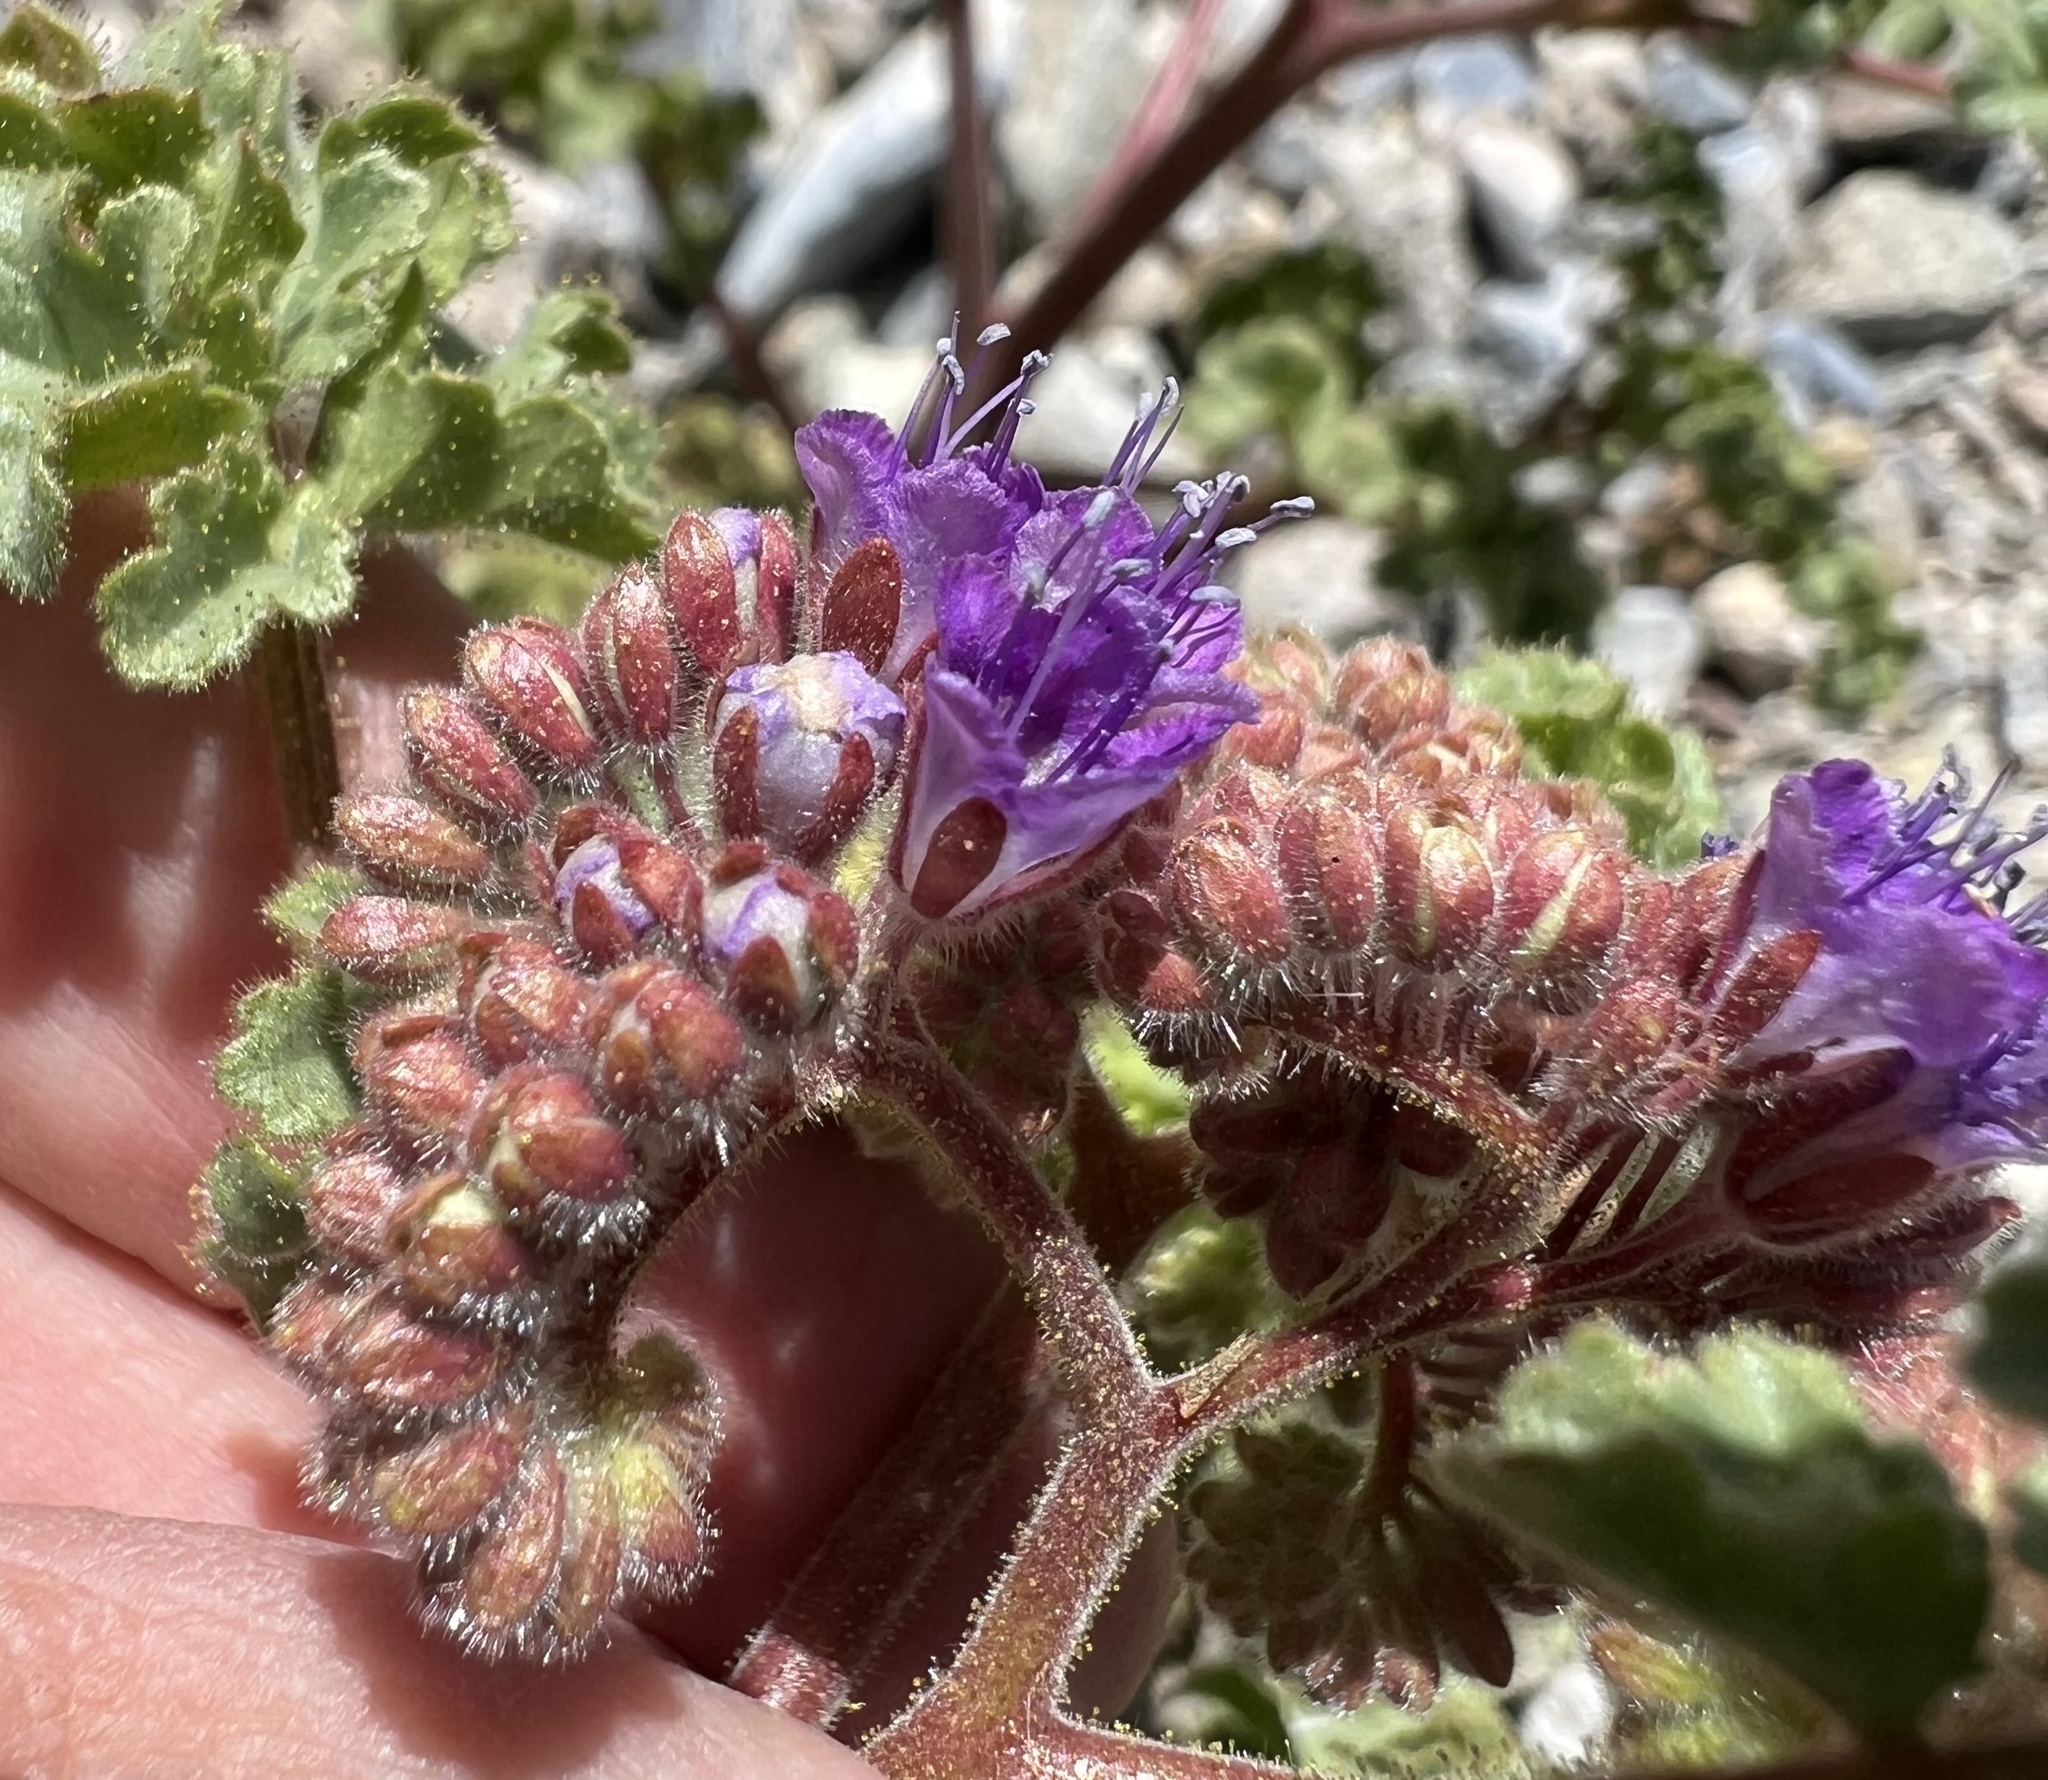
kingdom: Plantae
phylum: Tracheophyta
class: Magnoliopsida
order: Boraginales
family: Hydrophyllaceae
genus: Phacelia
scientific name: Phacelia pedicellata
